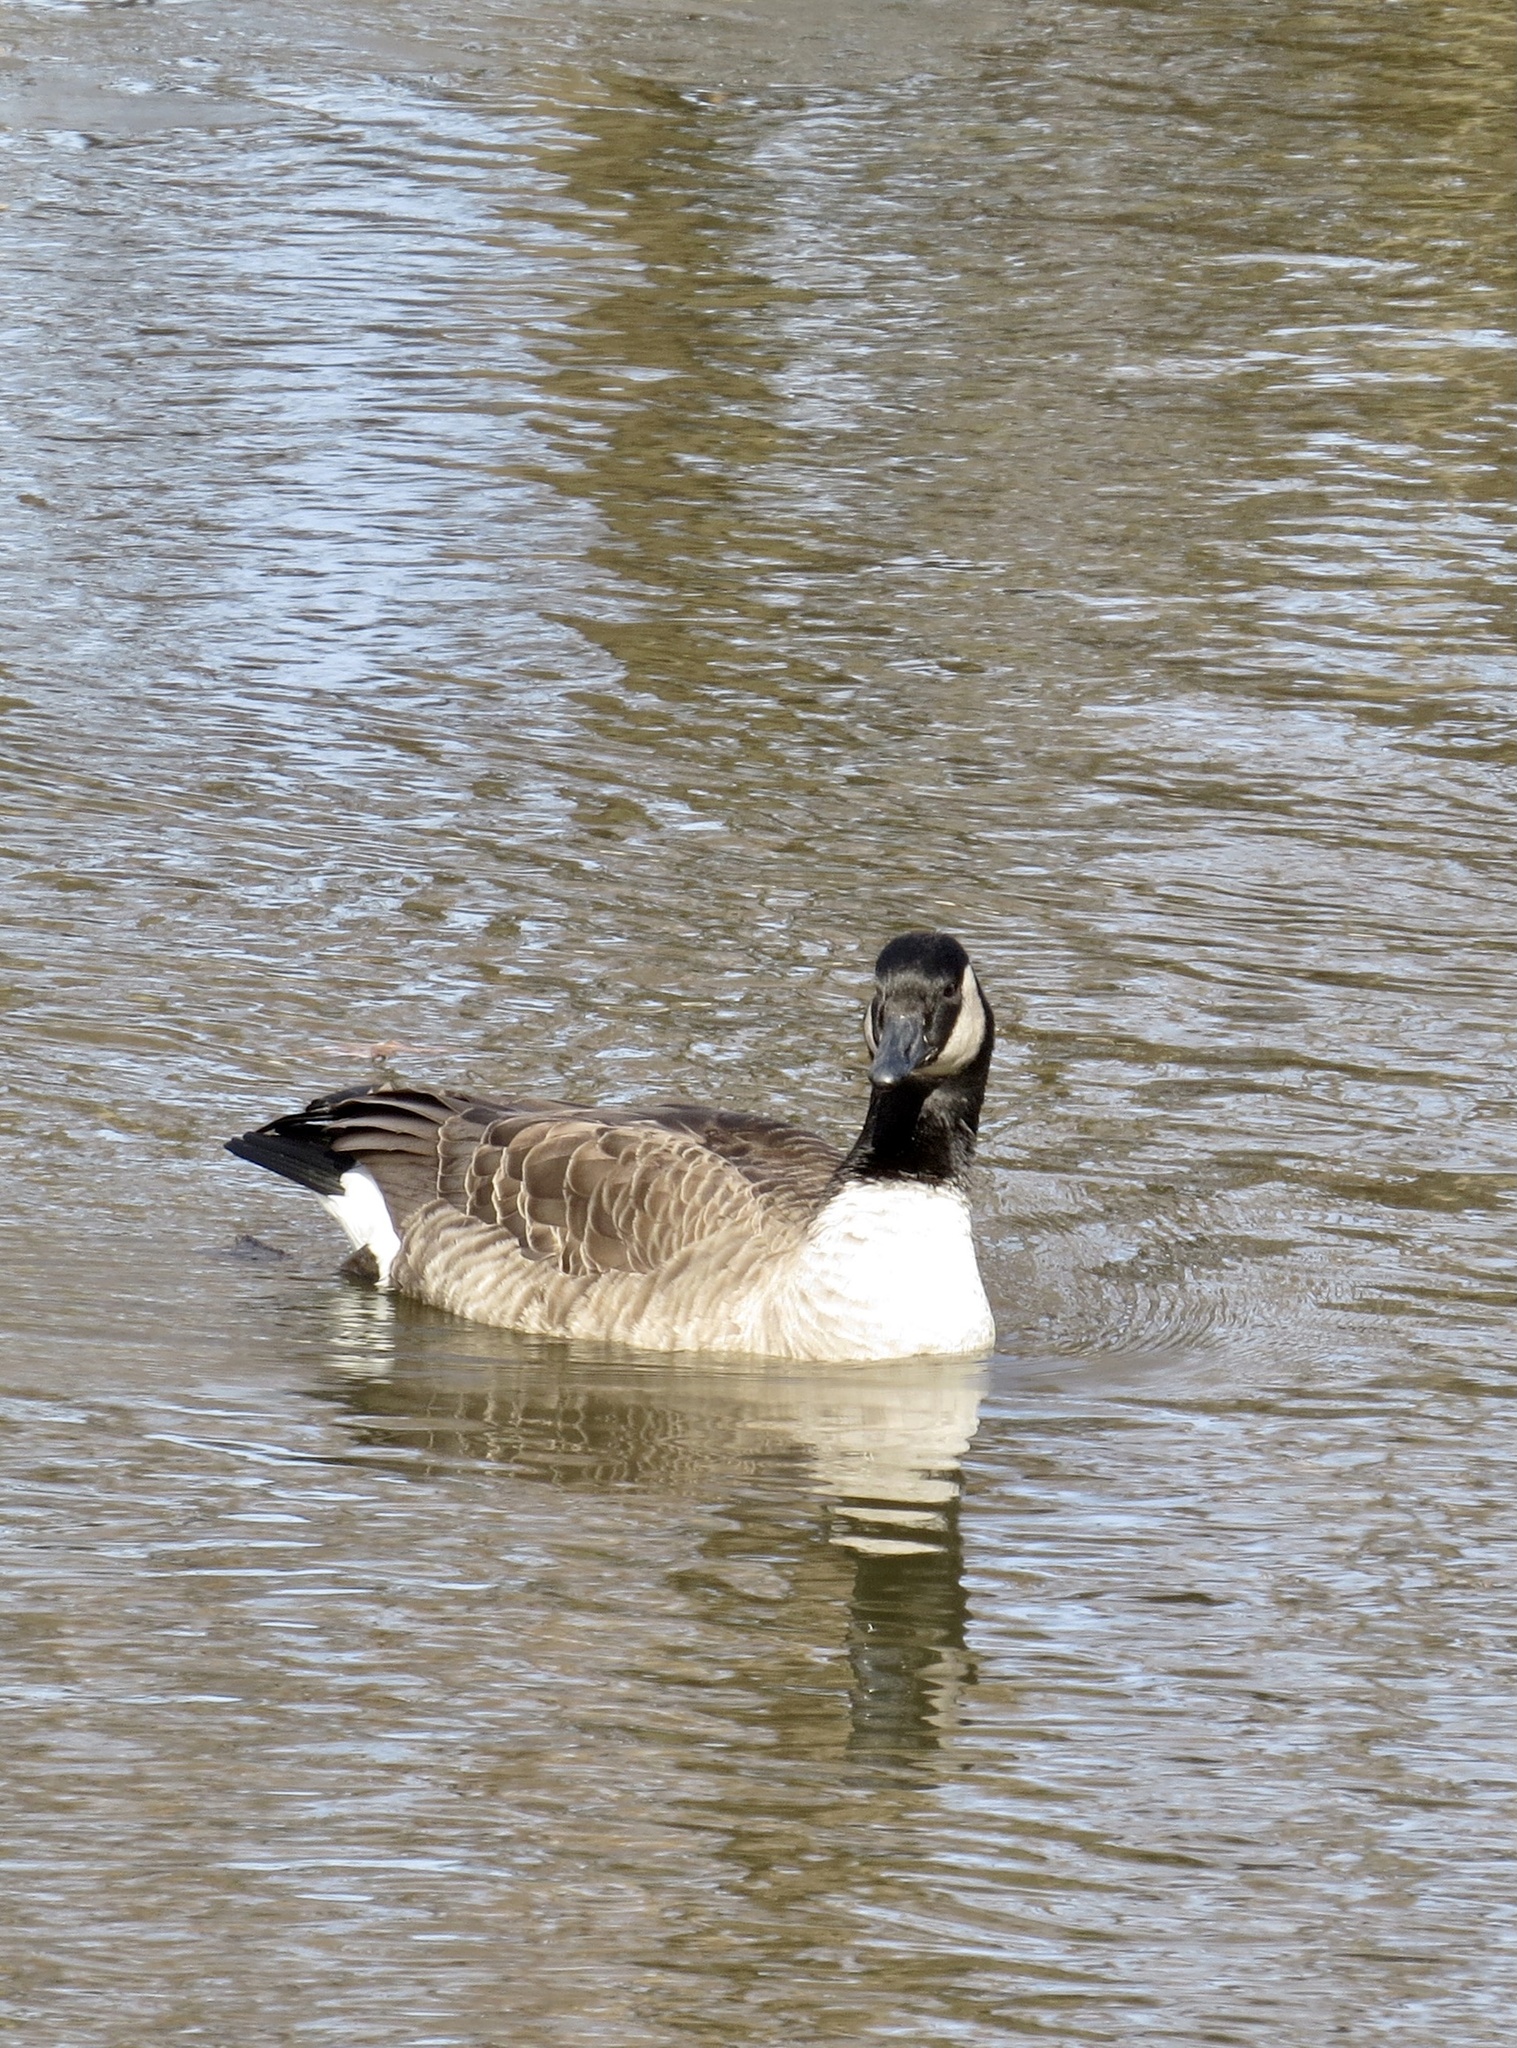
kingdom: Animalia
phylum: Chordata
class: Aves
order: Anseriformes
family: Anatidae
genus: Branta
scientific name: Branta canadensis
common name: Canada goose
